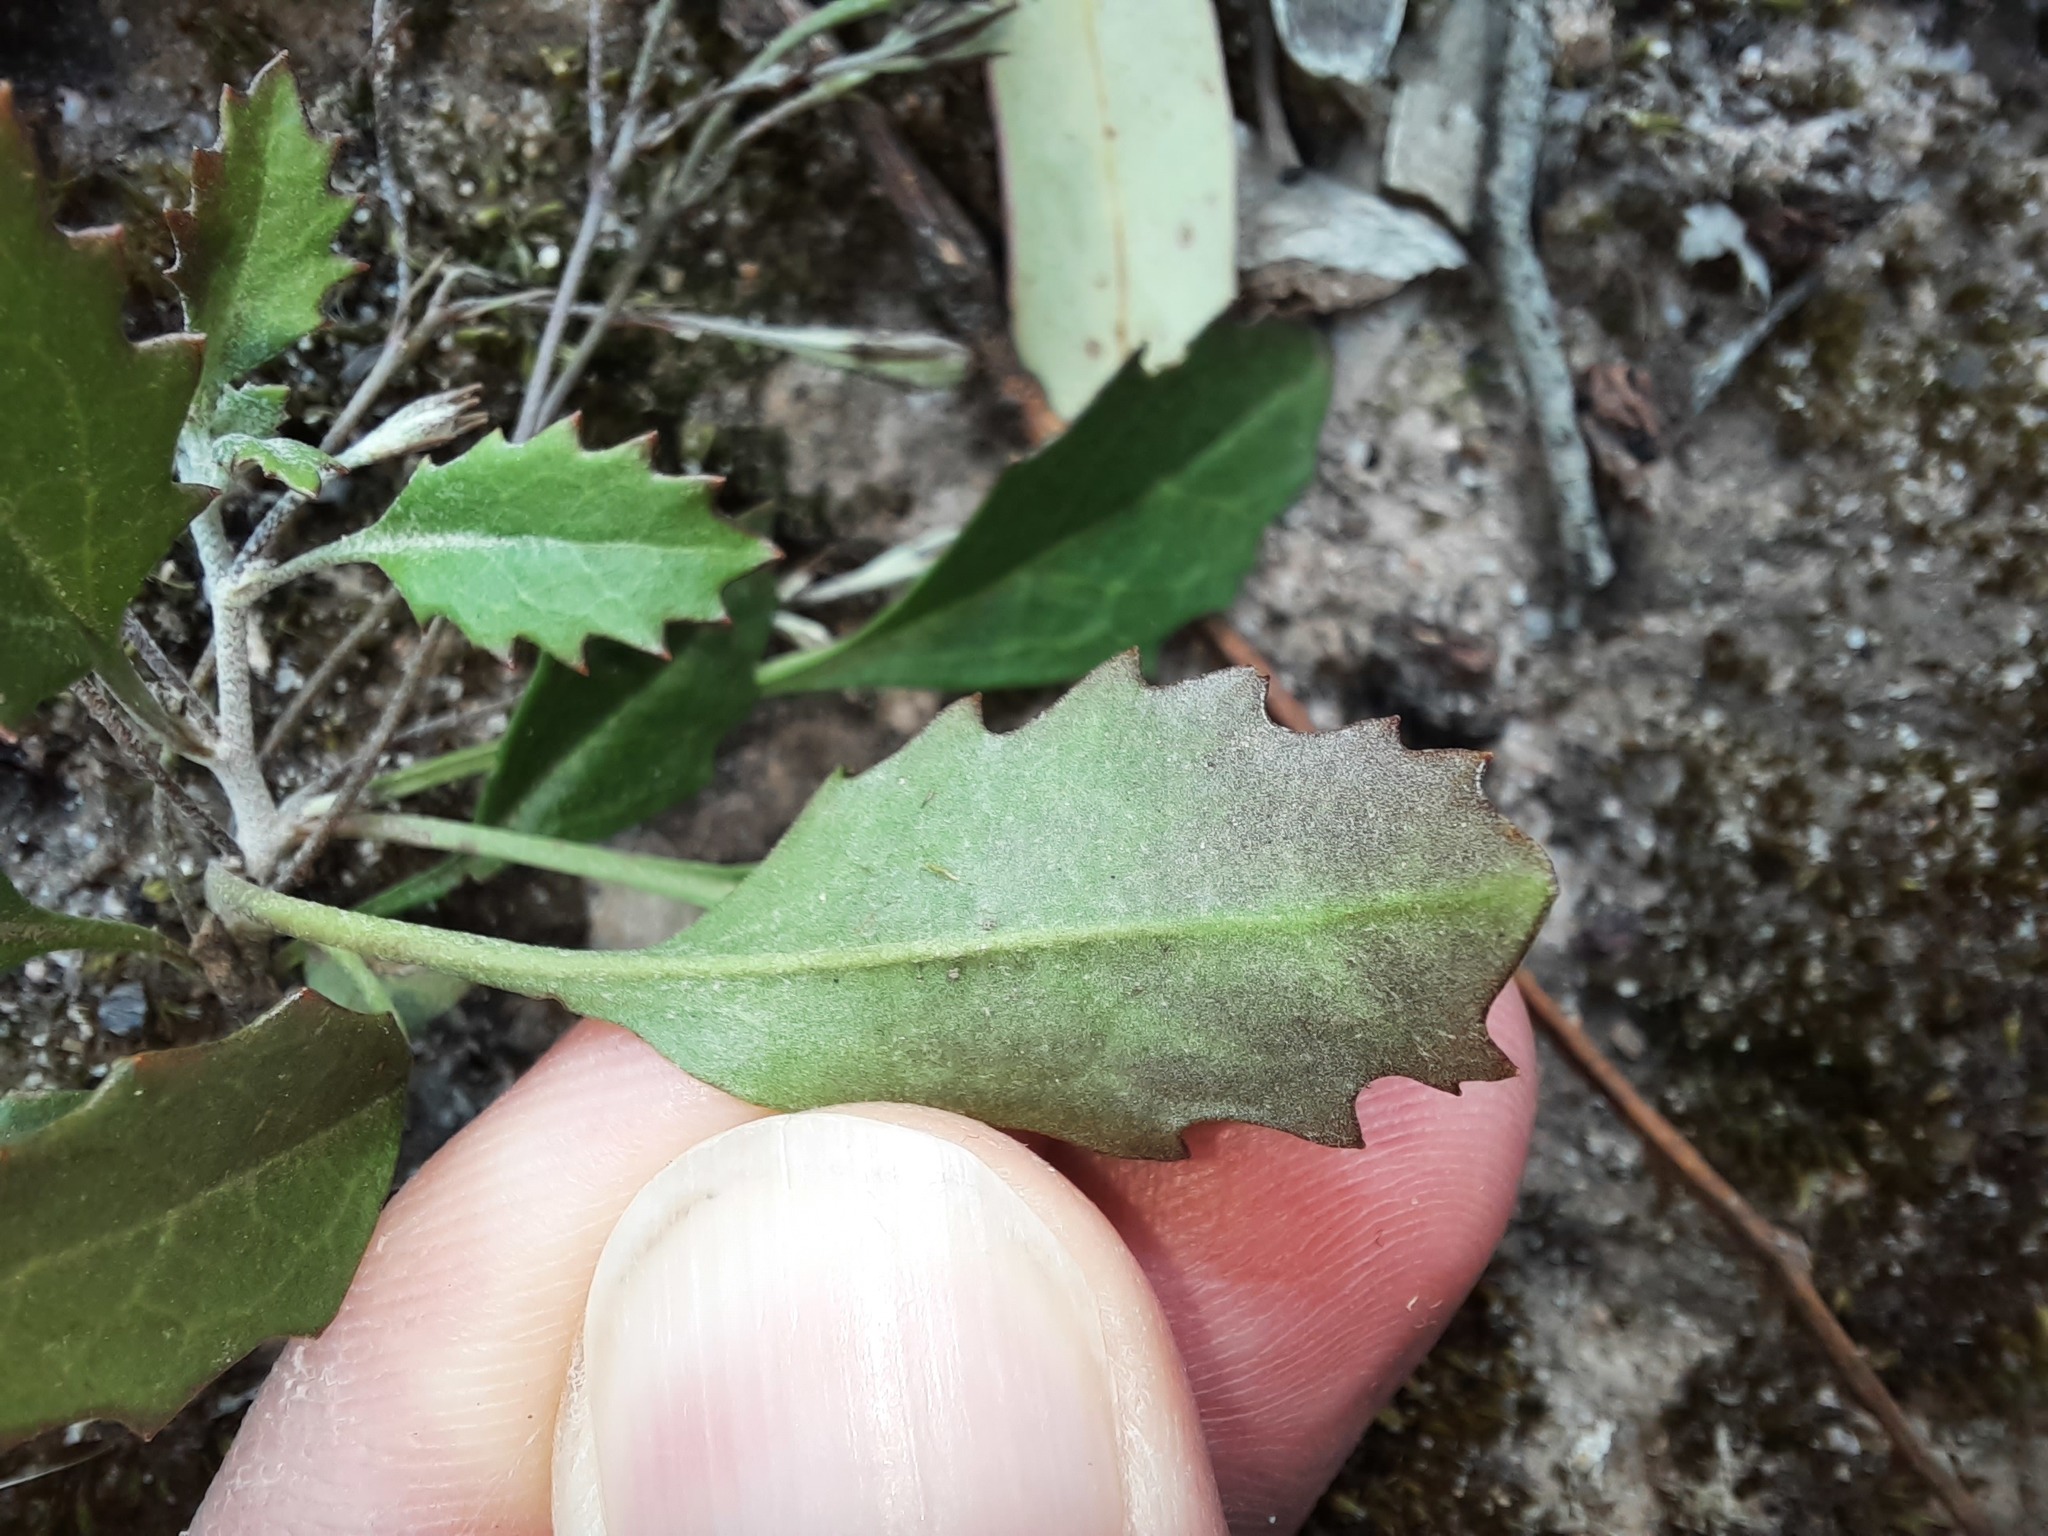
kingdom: Plantae
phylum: Tracheophyta
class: Magnoliopsida
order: Asterales
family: Goodeniaceae
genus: Goodenia
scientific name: Goodenia hederacea
